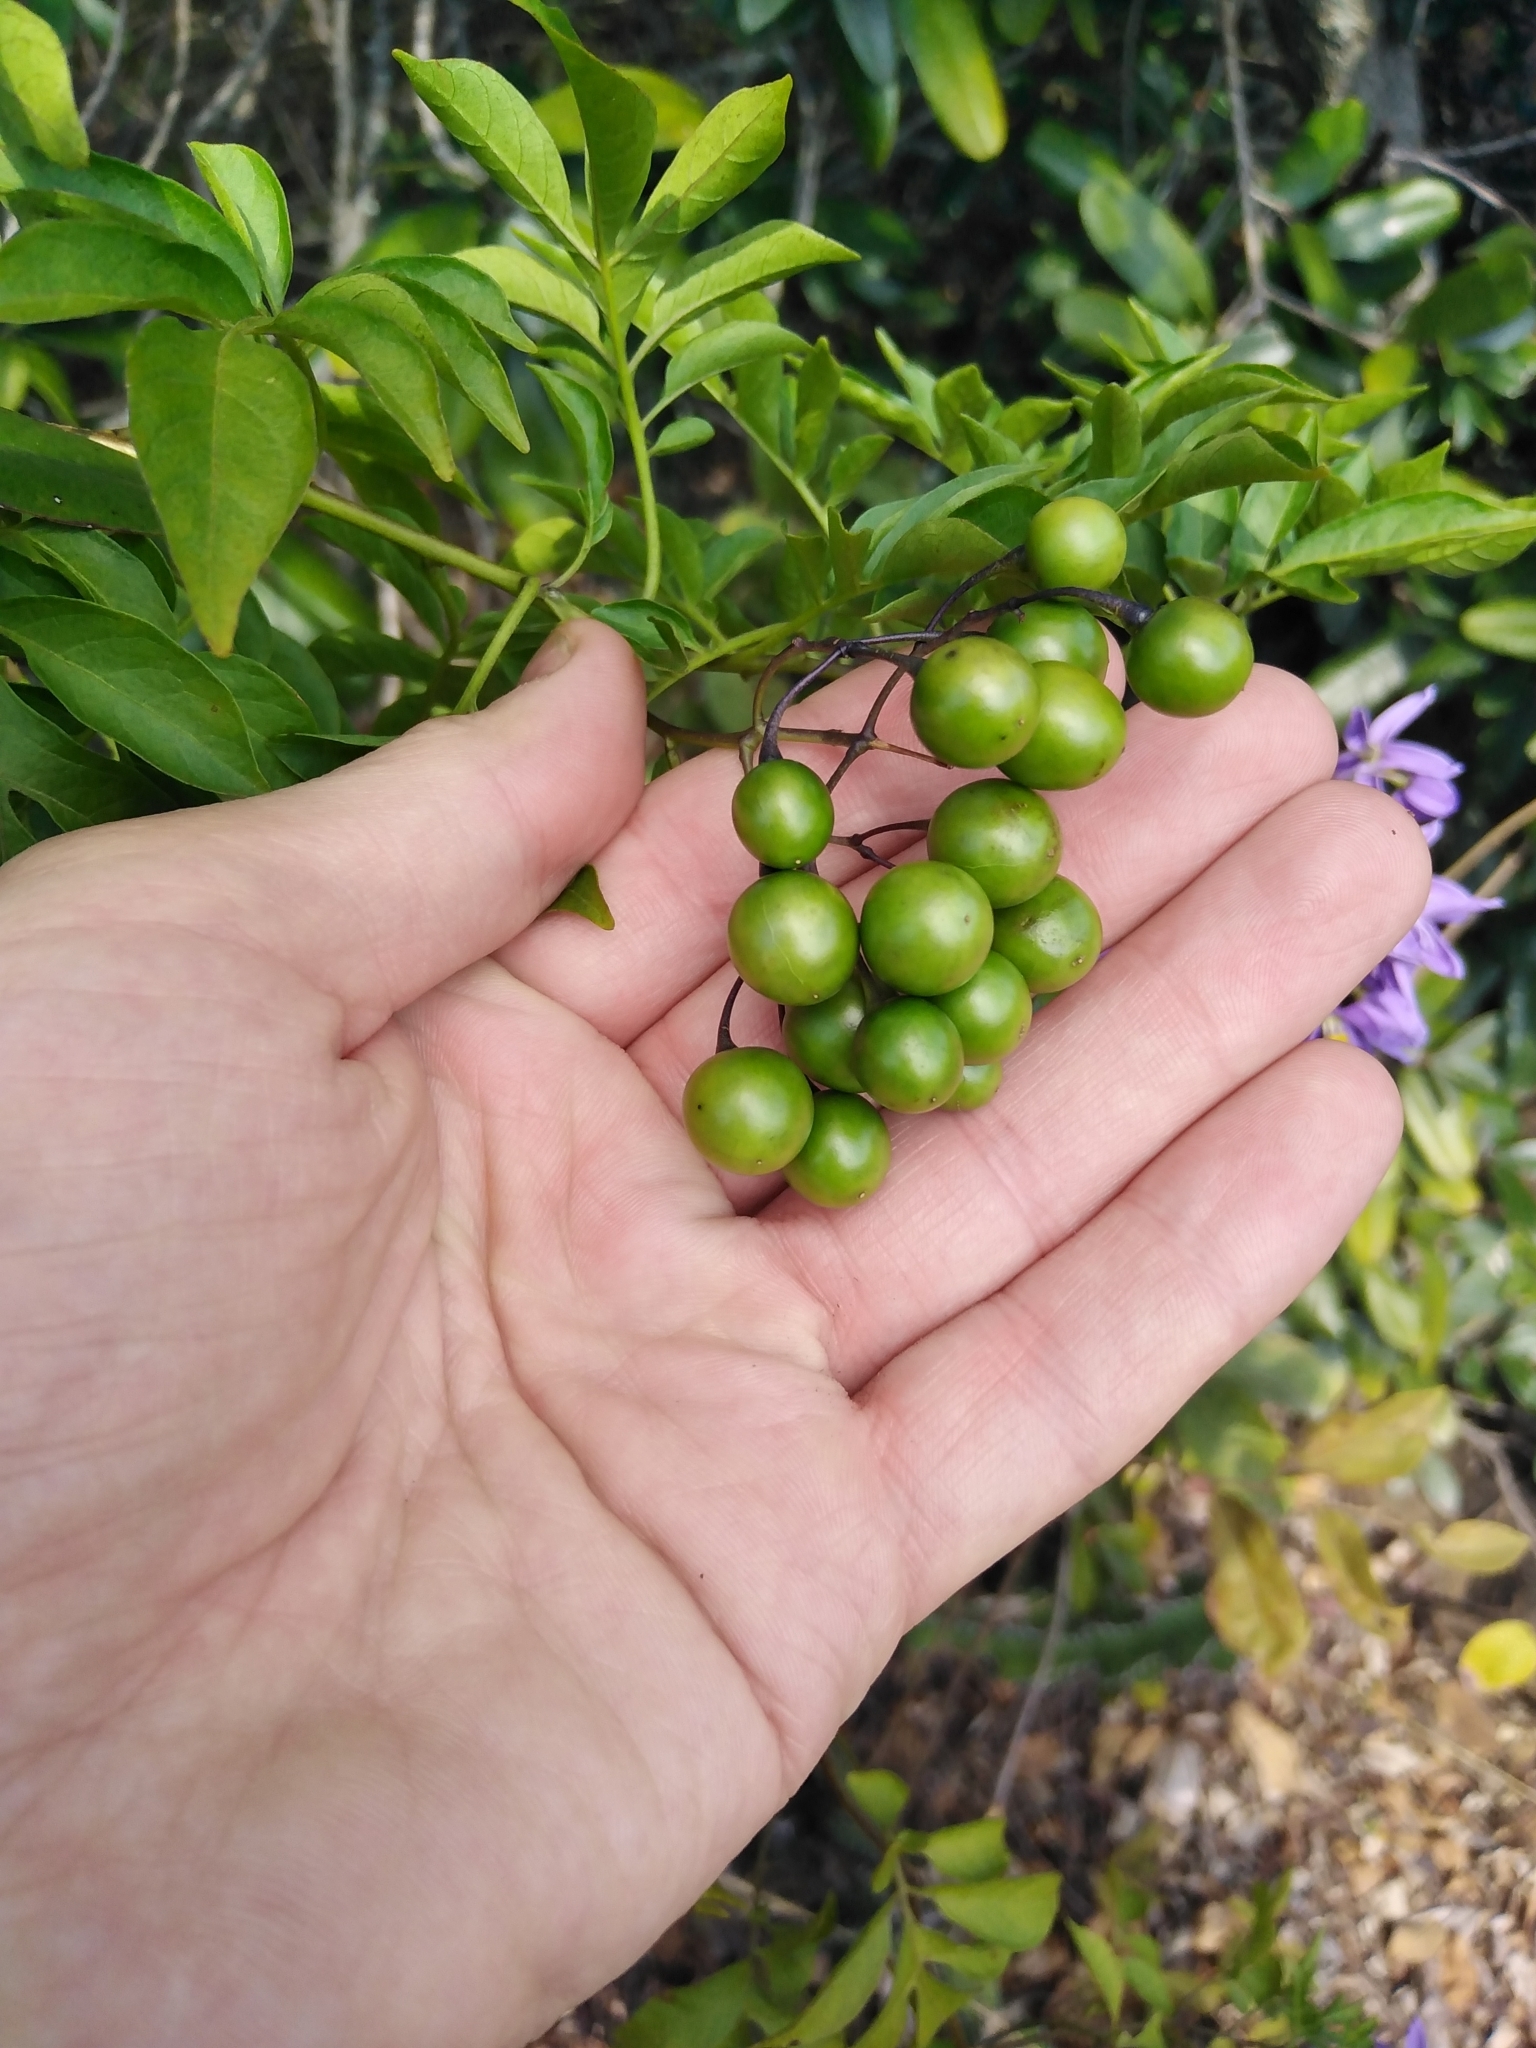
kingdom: Plantae
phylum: Tracheophyta
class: Magnoliopsida
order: Solanales
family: Solanaceae
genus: Solanum
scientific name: Solanum seaforthianum
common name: Brazilian nightshade
